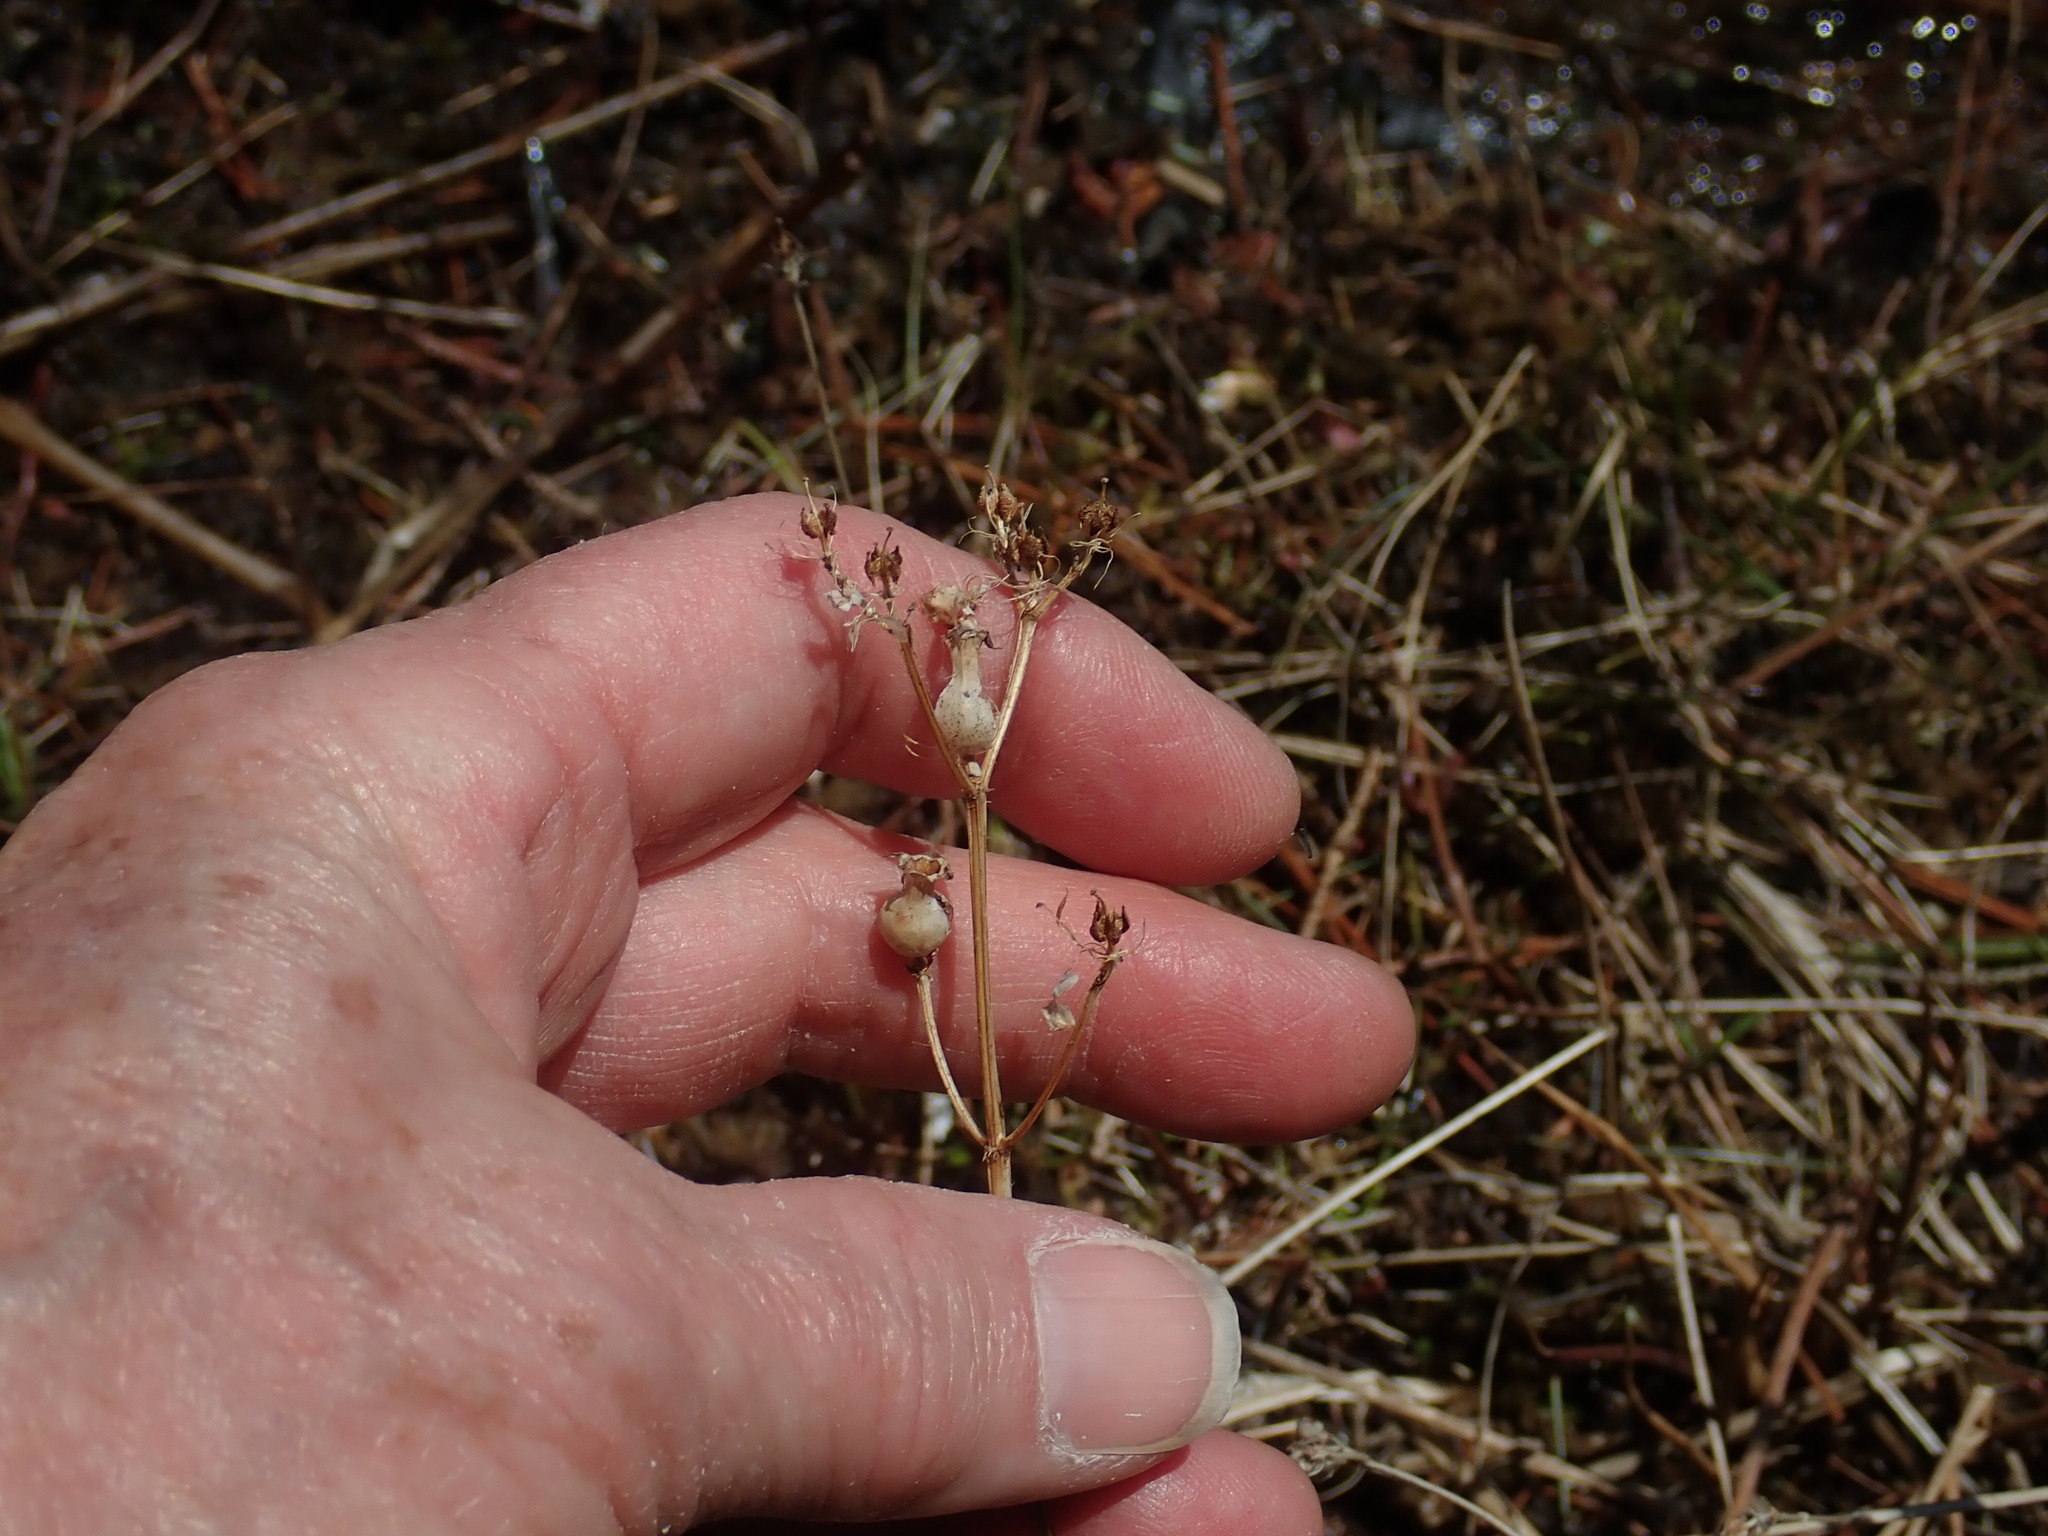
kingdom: Plantae
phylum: Tracheophyta
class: Magnoliopsida
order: Myrtales
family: Melastomataceae
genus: Rhexia
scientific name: Rhexia virginica
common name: Common meadow beauty
